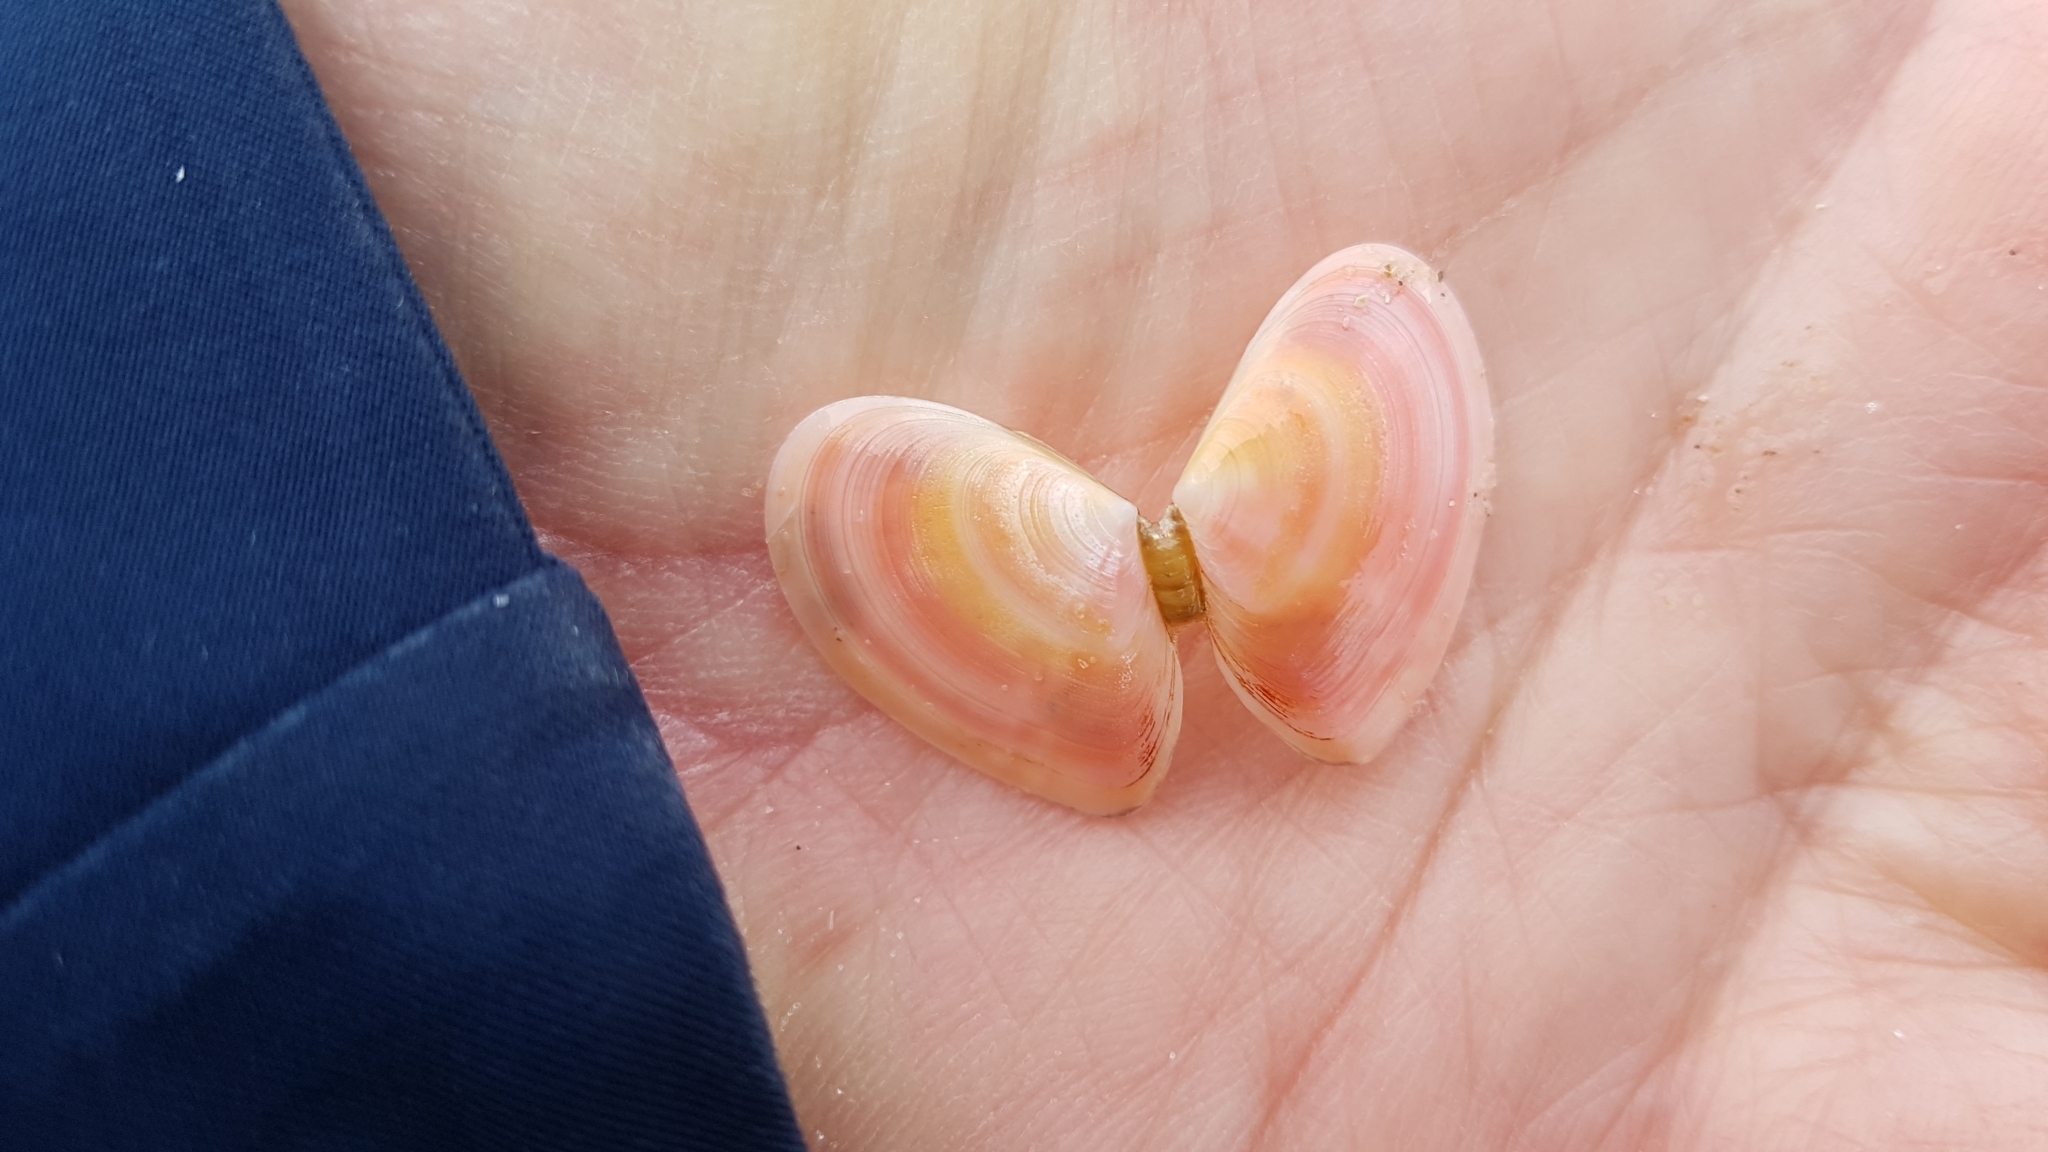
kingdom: Animalia
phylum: Mollusca
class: Bivalvia
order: Cardiida
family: Tellinidae
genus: Macomangulus
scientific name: Macomangulus tenuis
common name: Thin tellin
